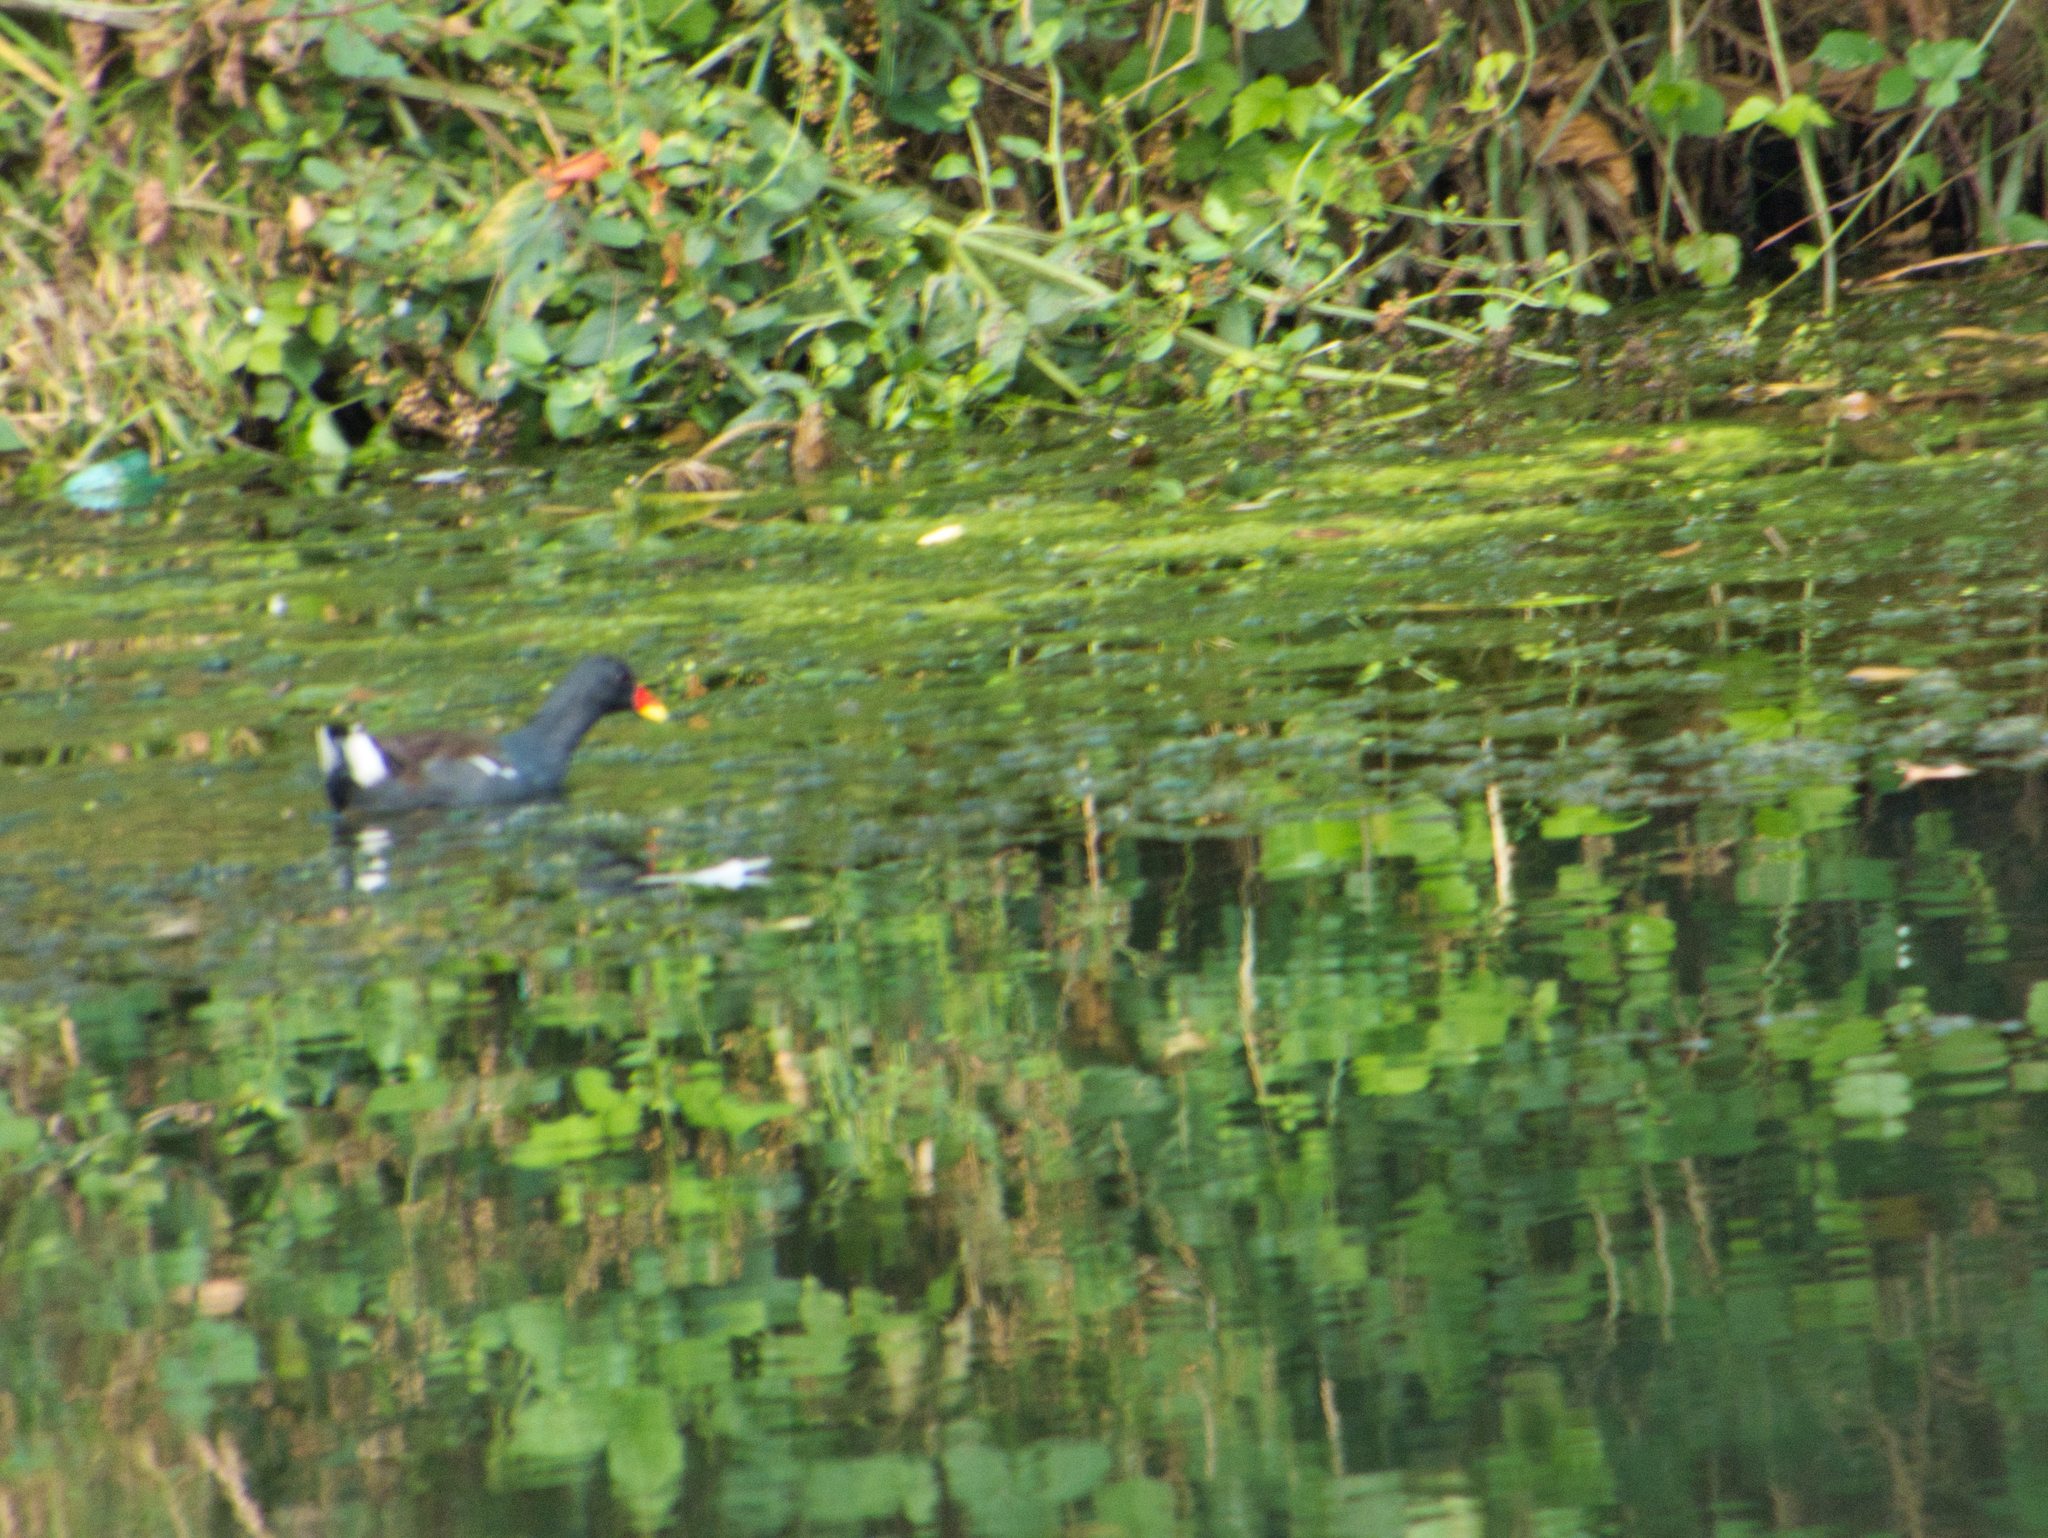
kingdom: Animalia
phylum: Chordata
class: Aves
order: Gruiformes
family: Rallidae
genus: Gallinula
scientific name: Gallinula chloropus
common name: Common moorhen
